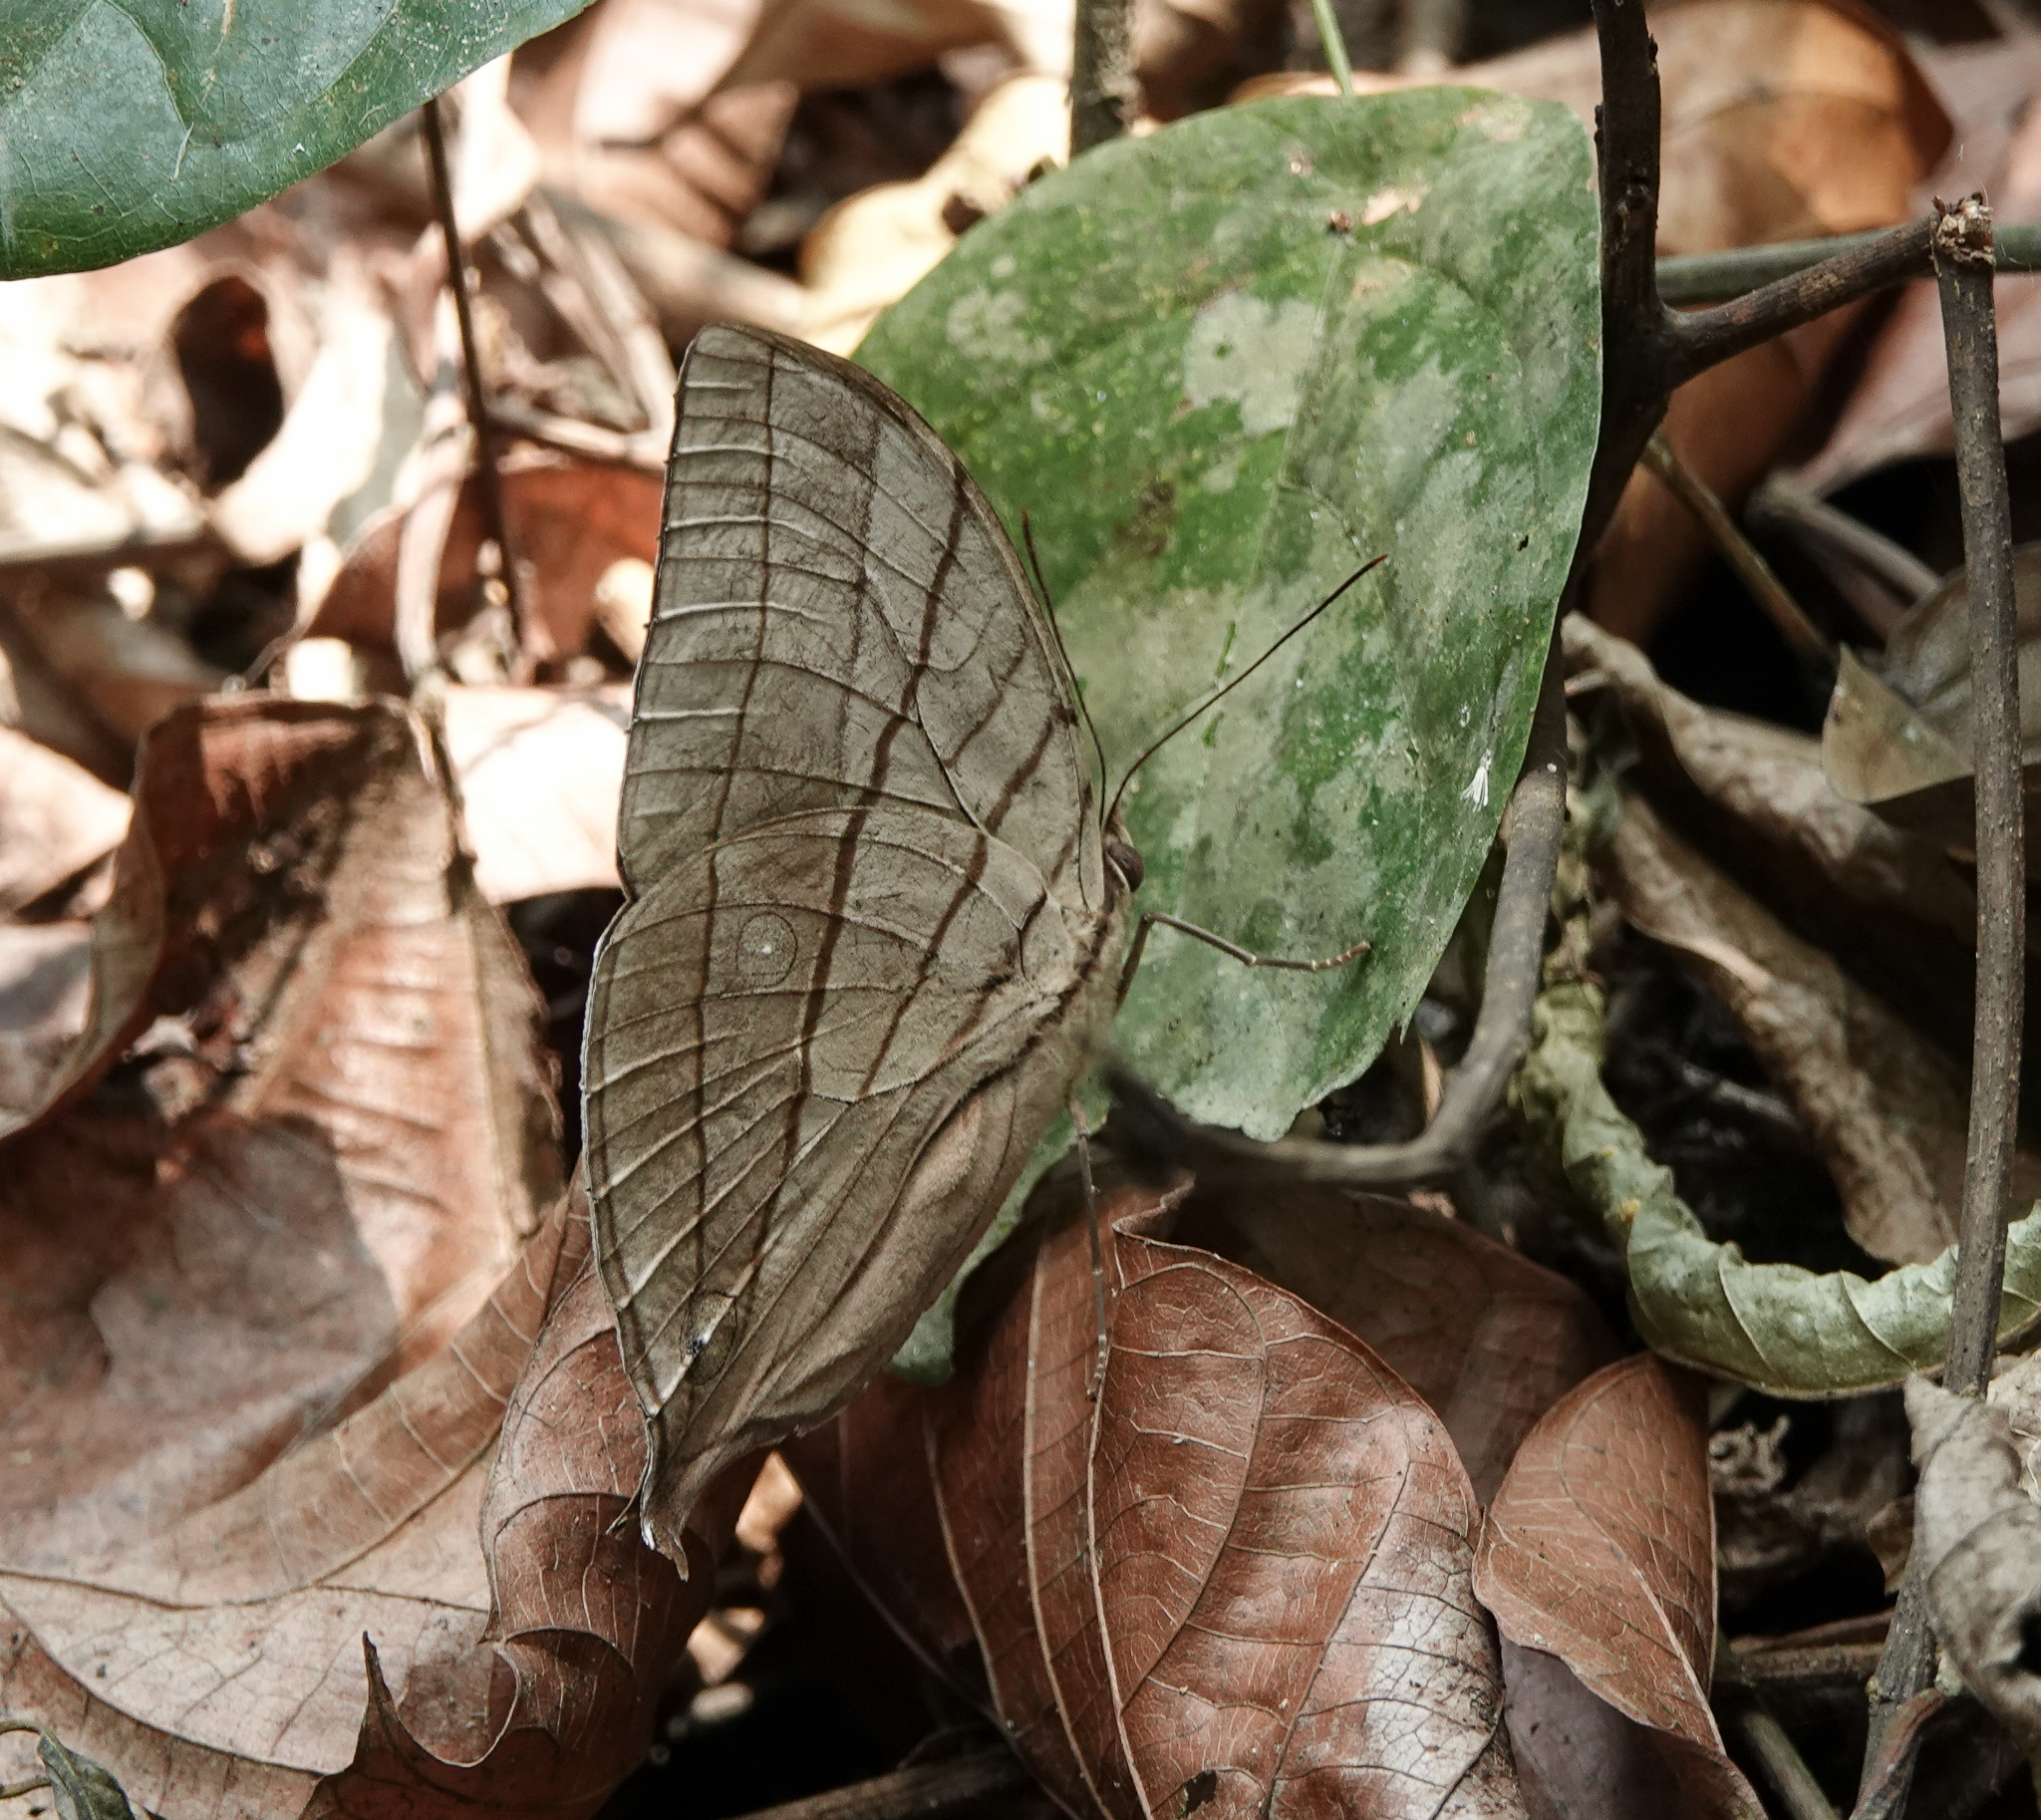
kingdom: Animalia
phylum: Arthropoda
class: Insecta
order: Lepidoptera
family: Nymphalidae
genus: Amathuxidia
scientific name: Amathuxidia amythaon
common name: Koh-i-noor
